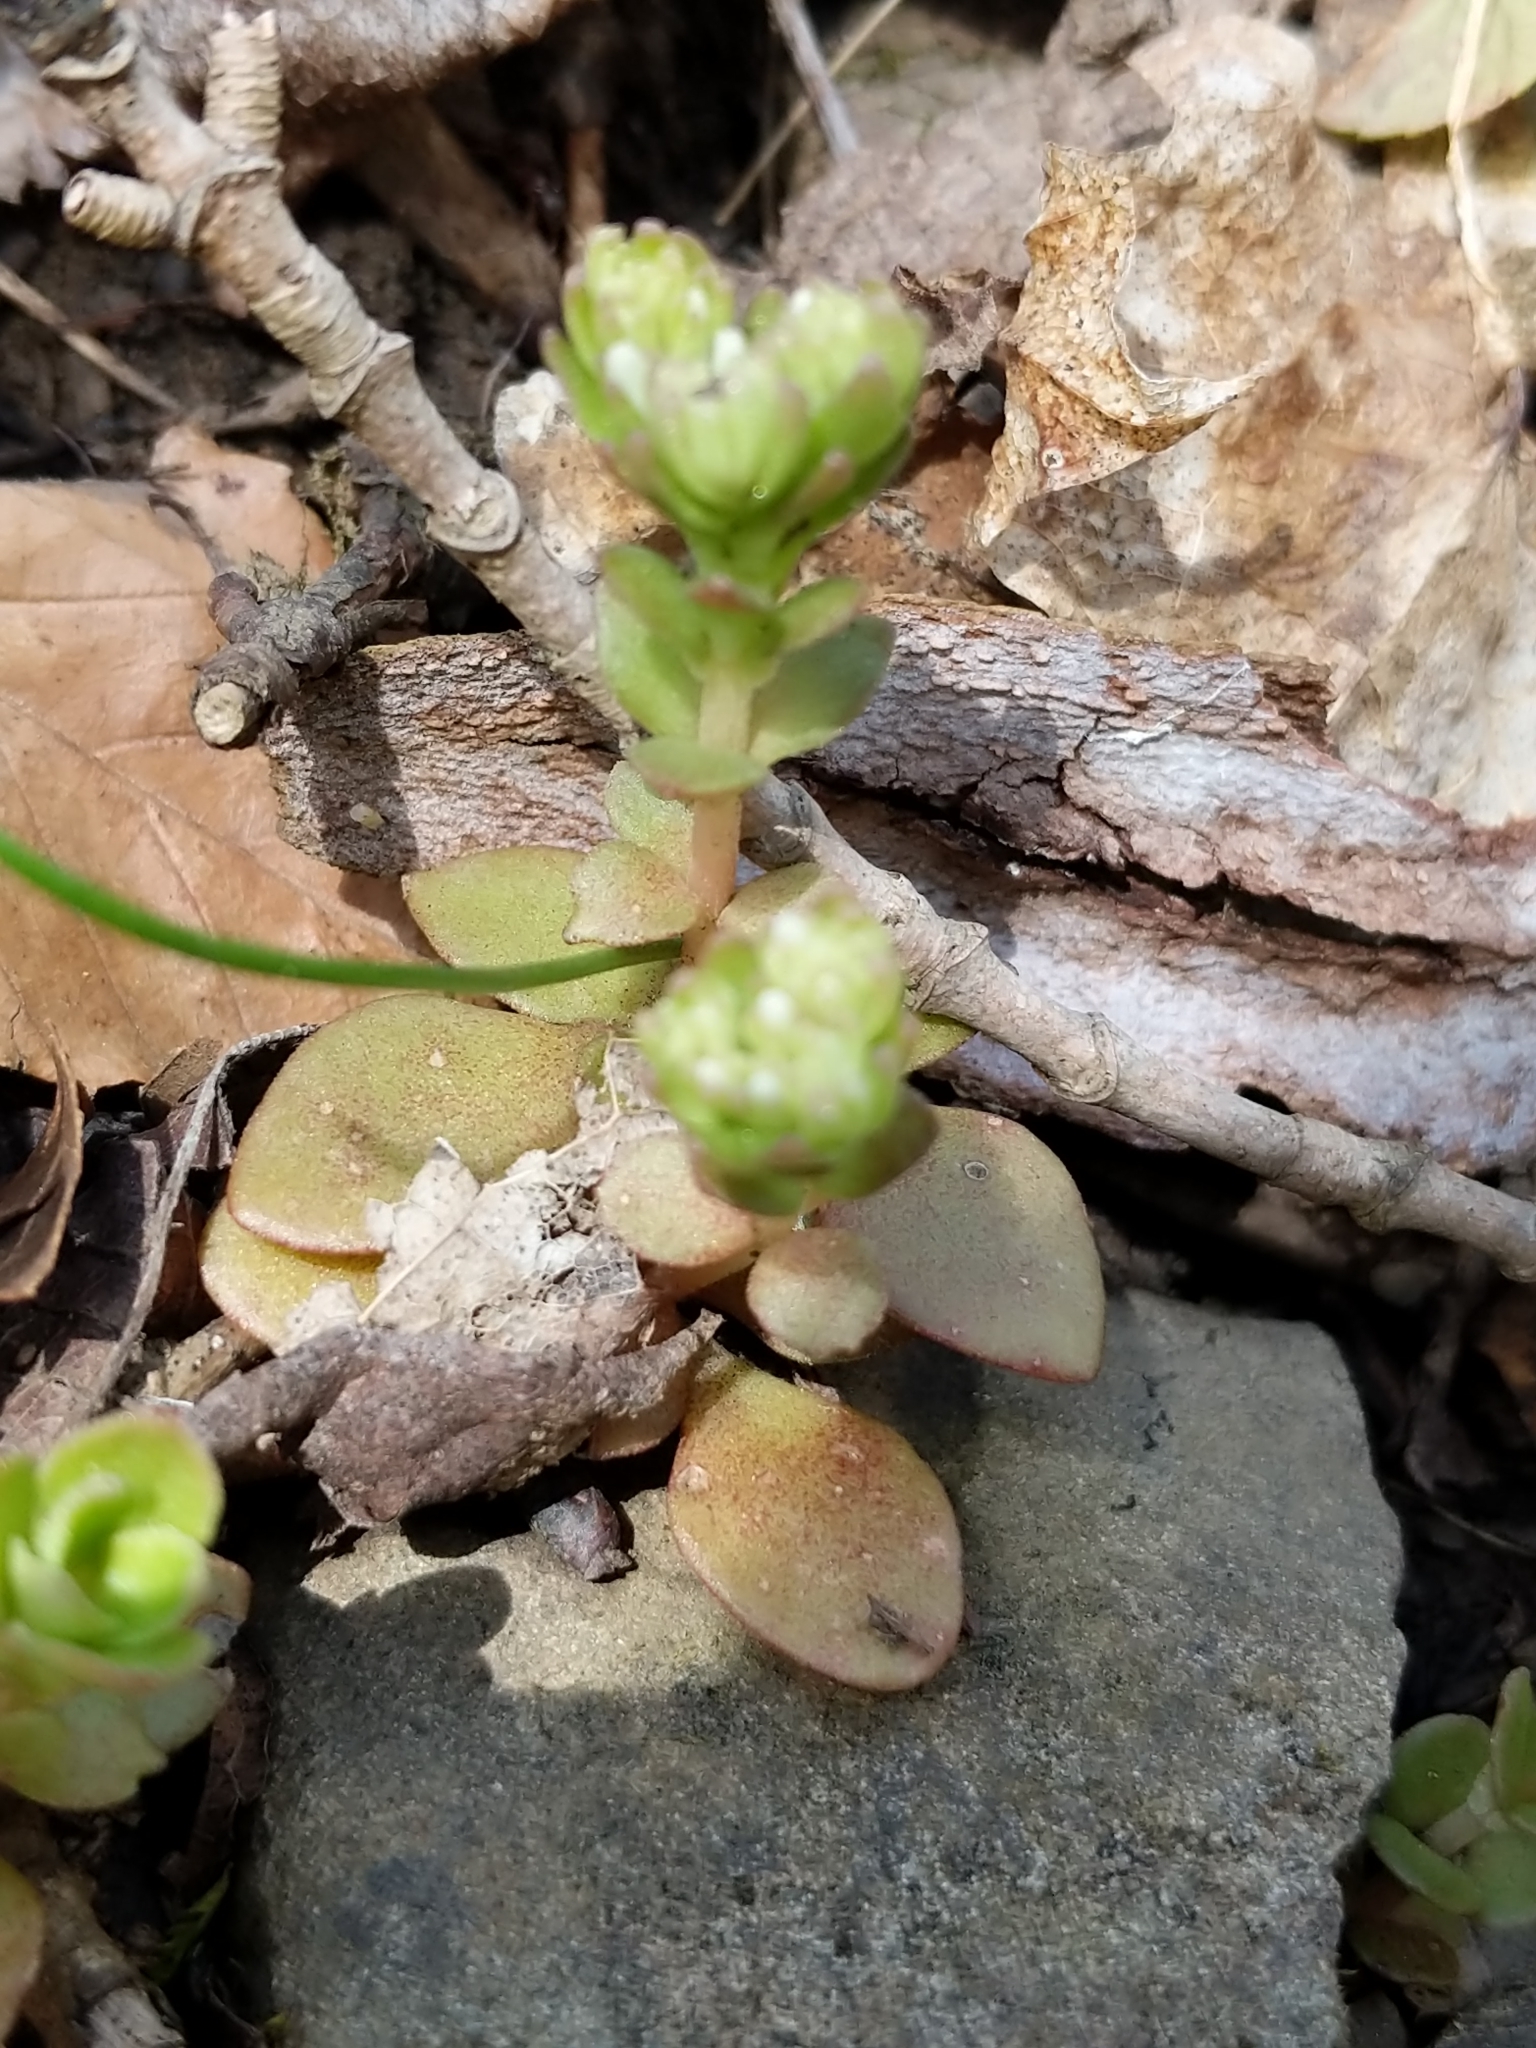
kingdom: Plantae
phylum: Tracheophyta
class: Magnoliopsida
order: Saxifragales
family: Crassulaceae
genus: Sedum
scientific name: Sedum ternatum
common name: Wild stonecrop
